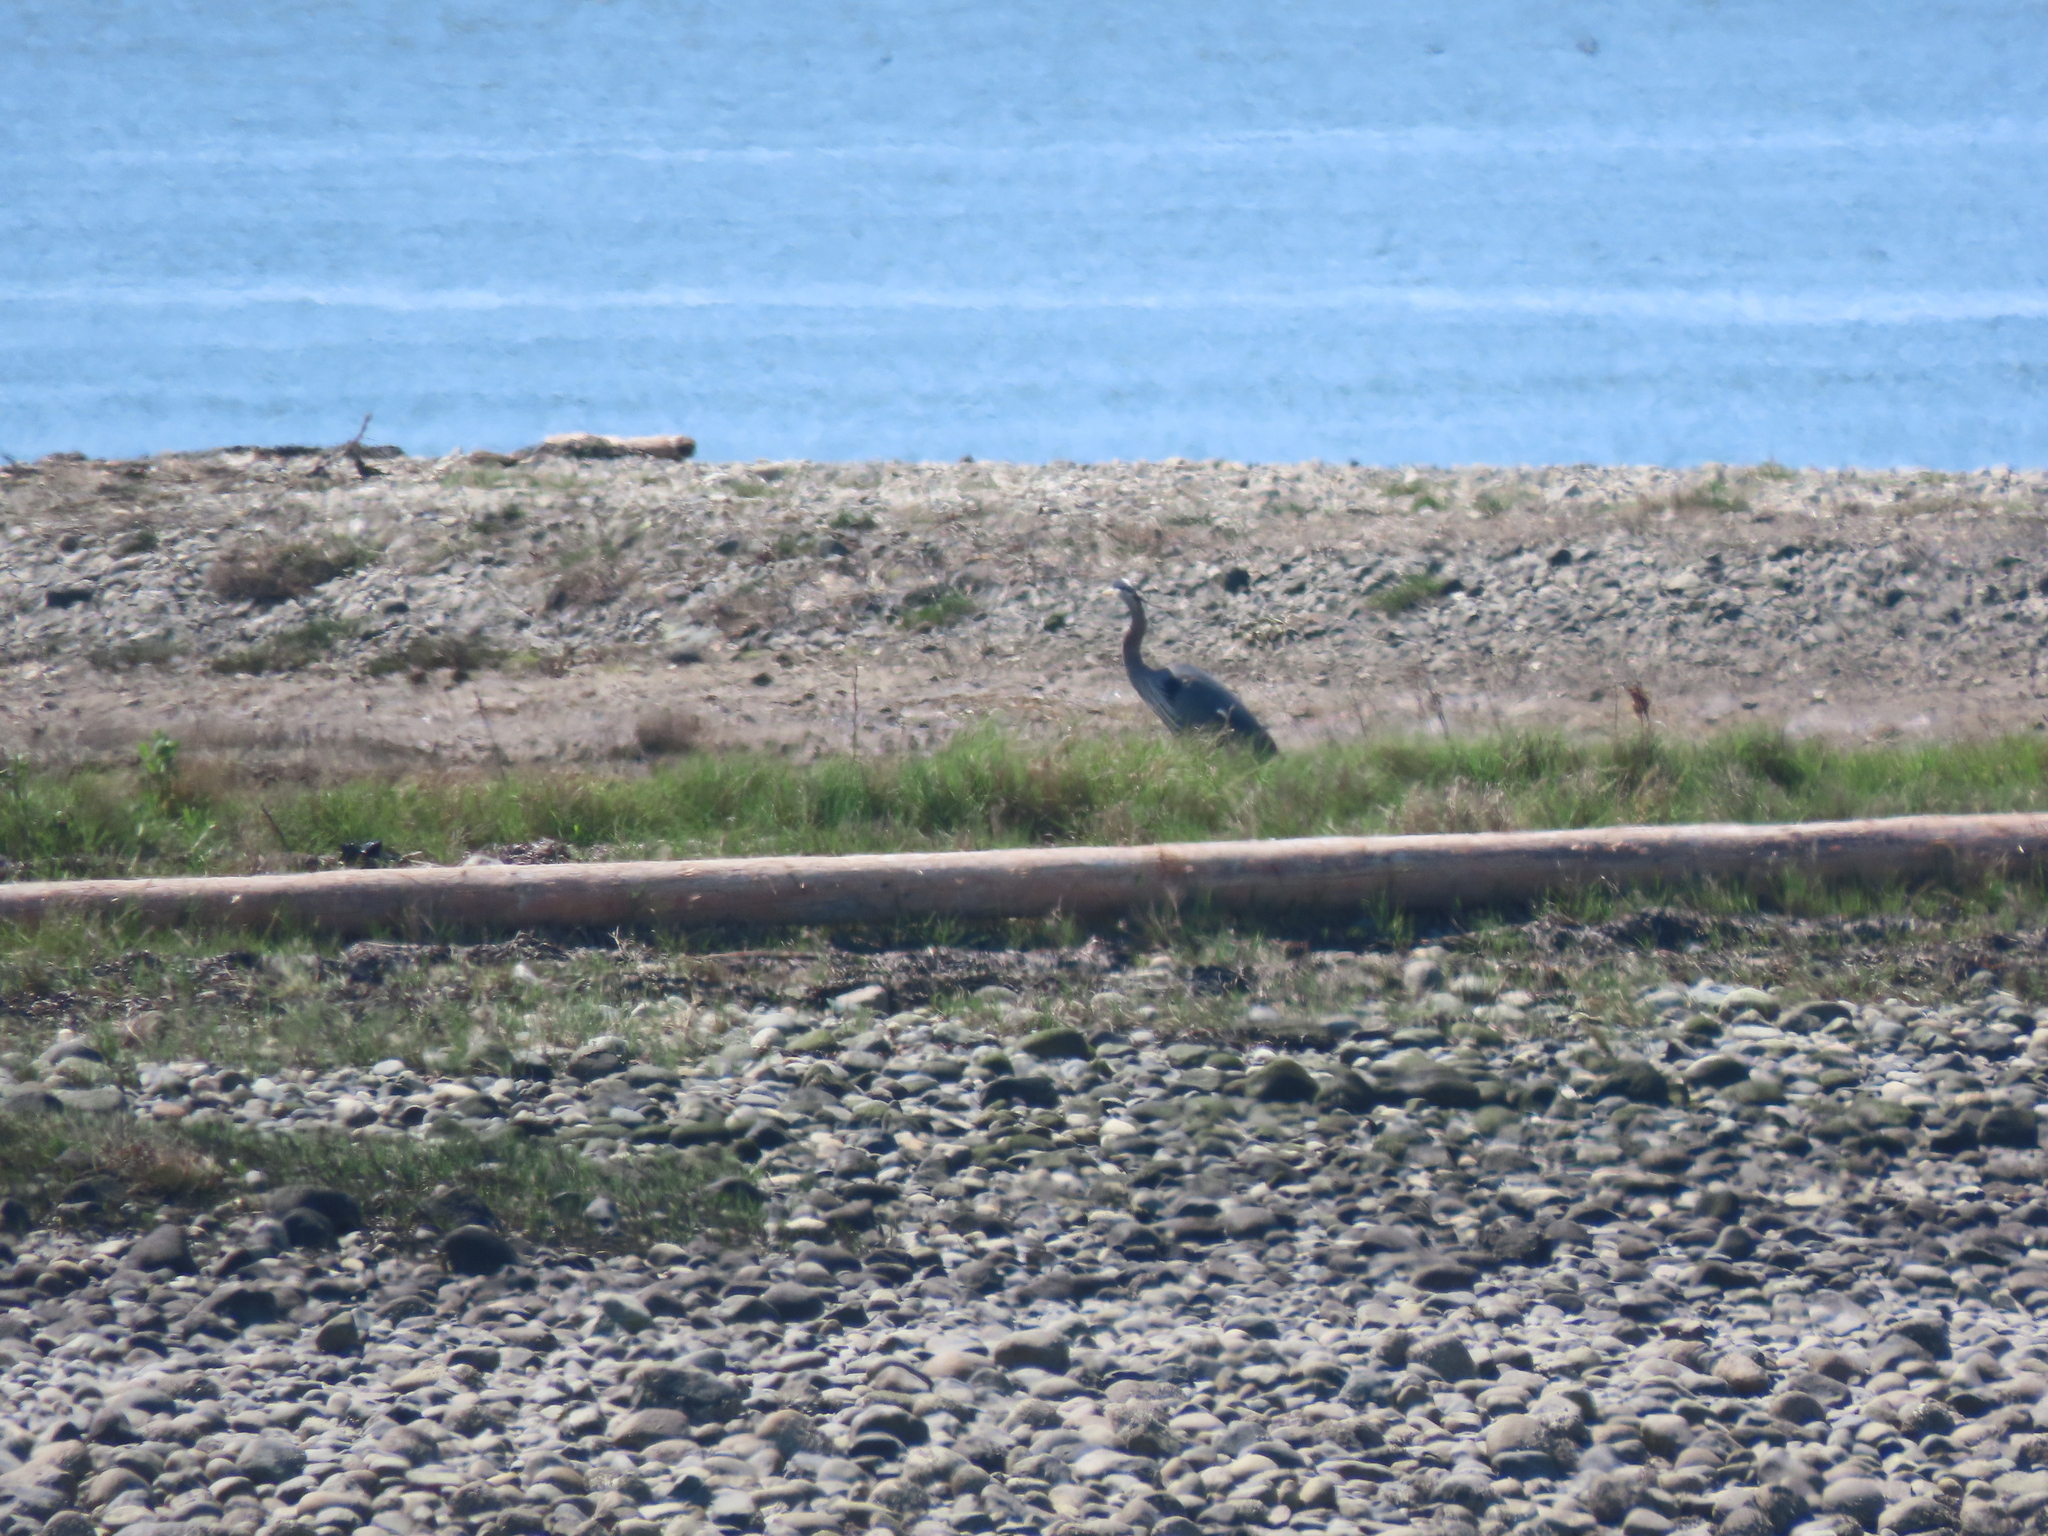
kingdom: Animalia
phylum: Chordata
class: Aves
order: Pelecaniformes
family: Ardeidae
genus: Ardea
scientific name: Ardea herodias
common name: Great blue heron
